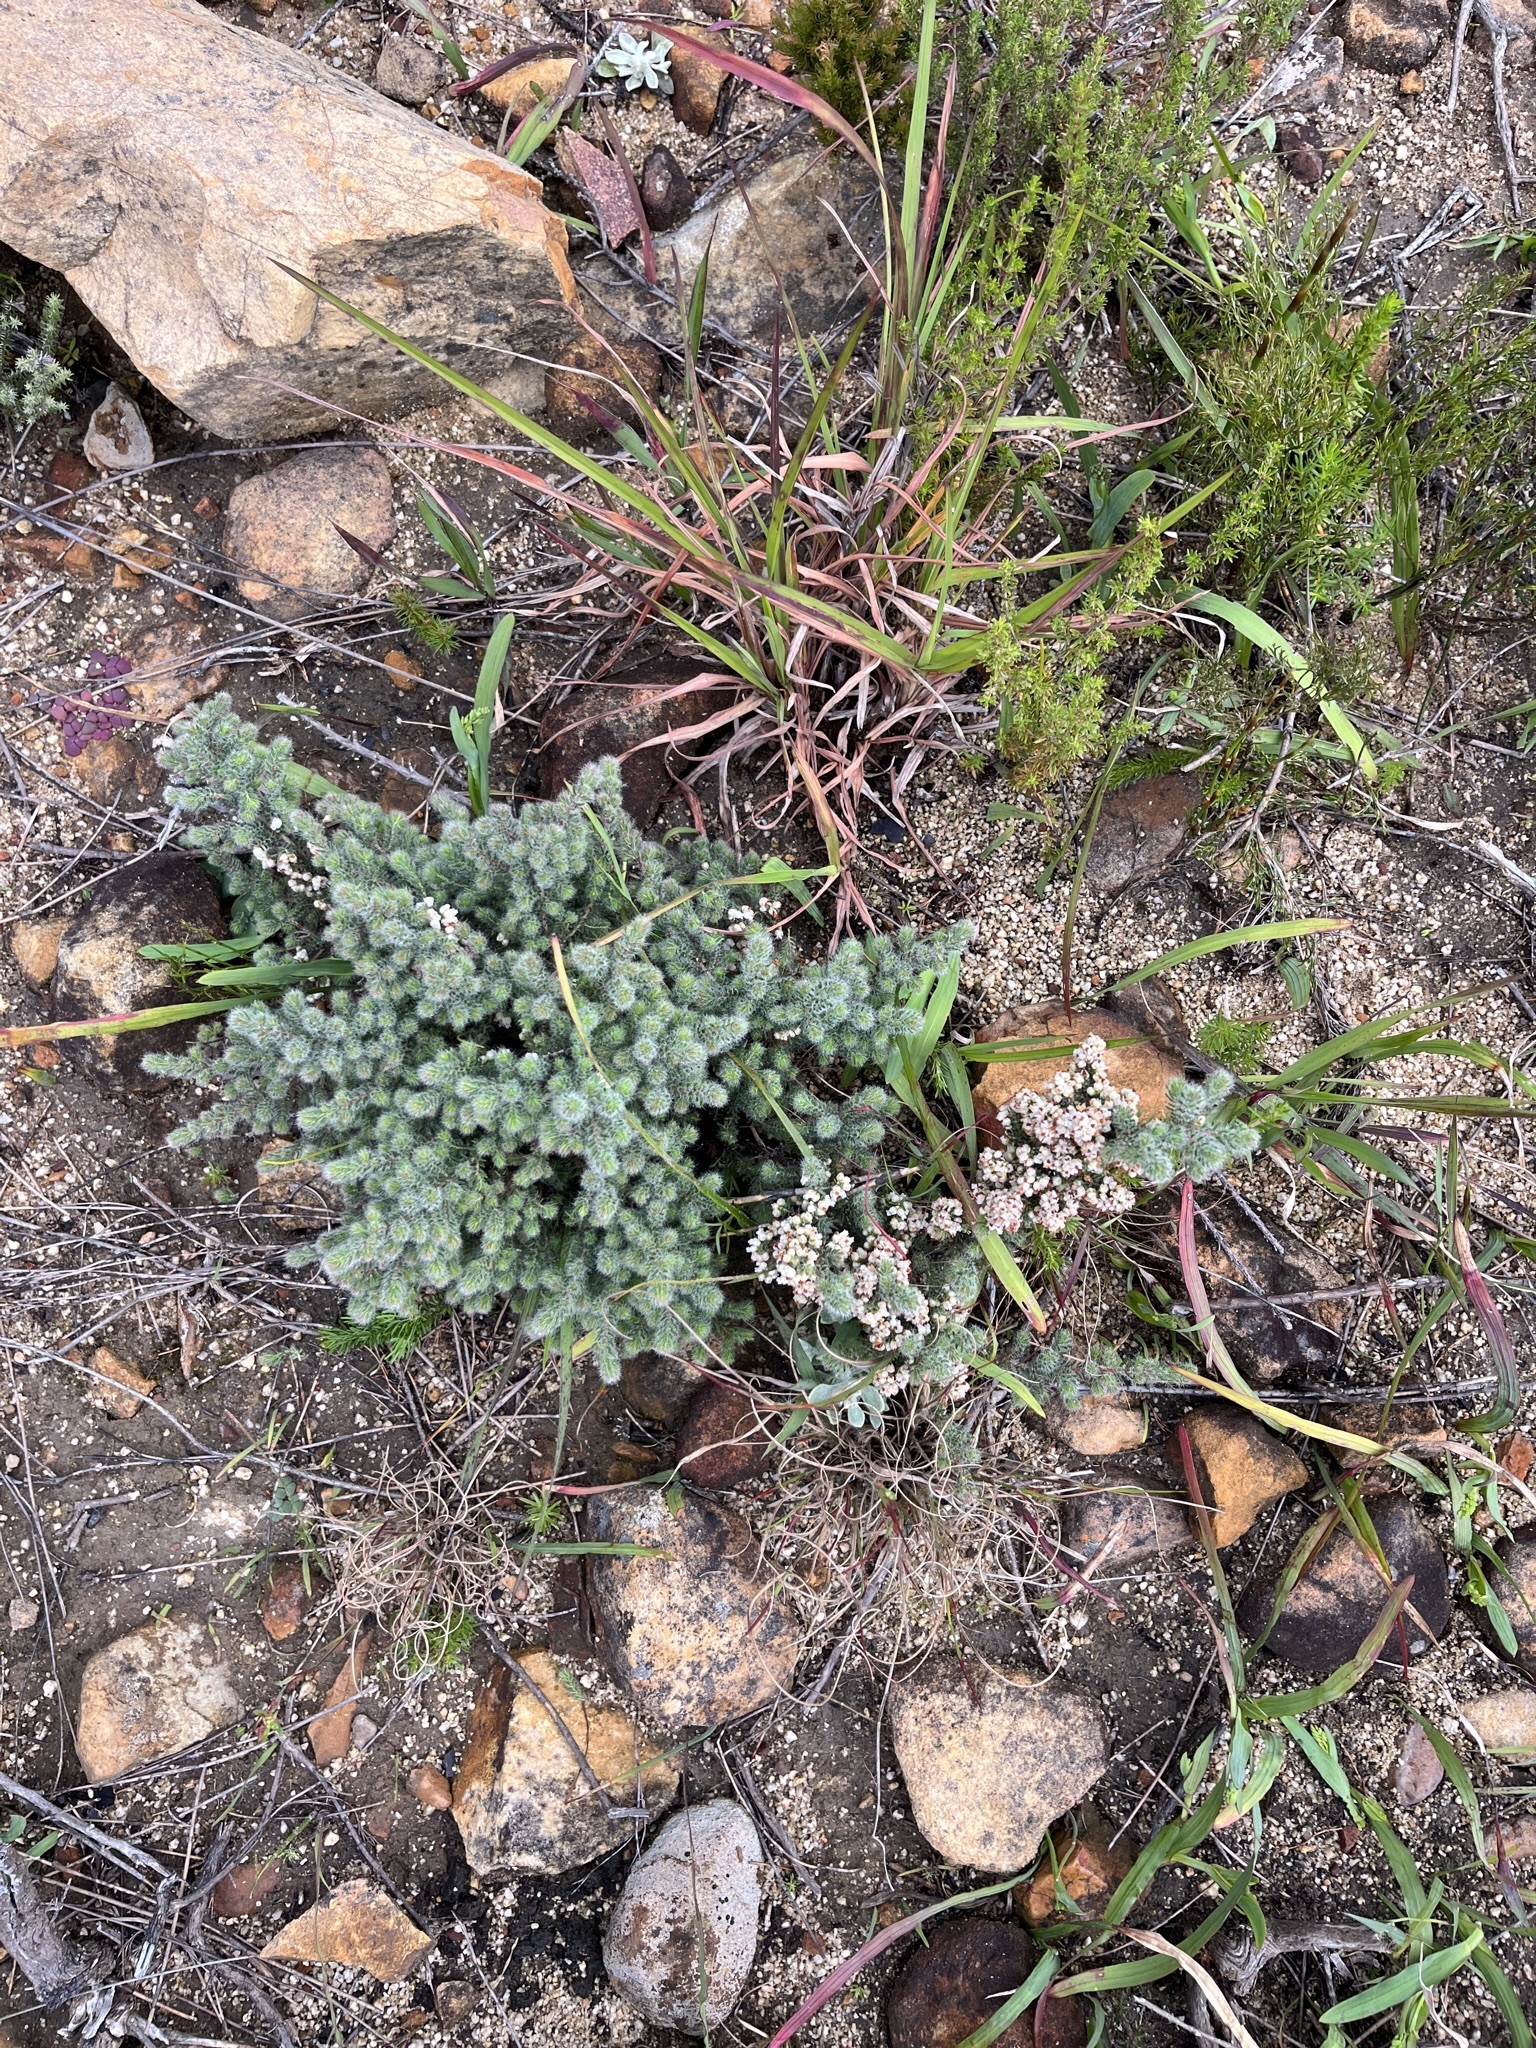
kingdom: Plantae
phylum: Tracheophyta
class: Magnoliopsida
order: Ericales
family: Ericaceae
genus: Erica
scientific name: Erica totta
